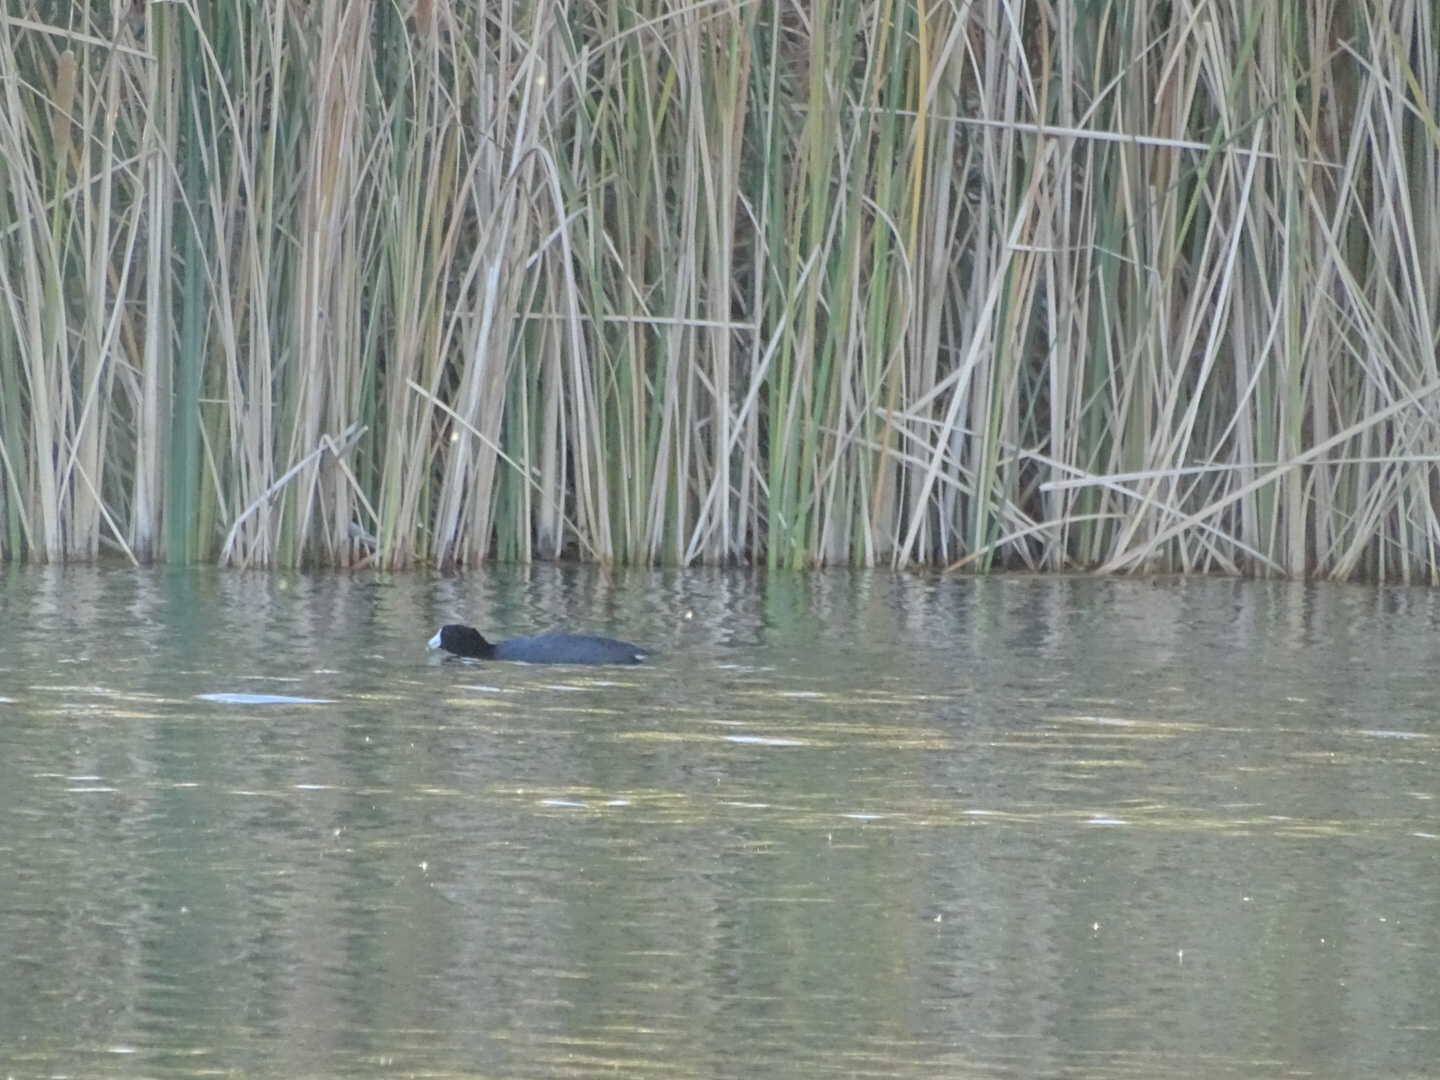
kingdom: Animalia
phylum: Chordata
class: Aves
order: Gruiformes
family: Rallidae
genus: Fulica
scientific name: Fulica americana
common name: American coot
